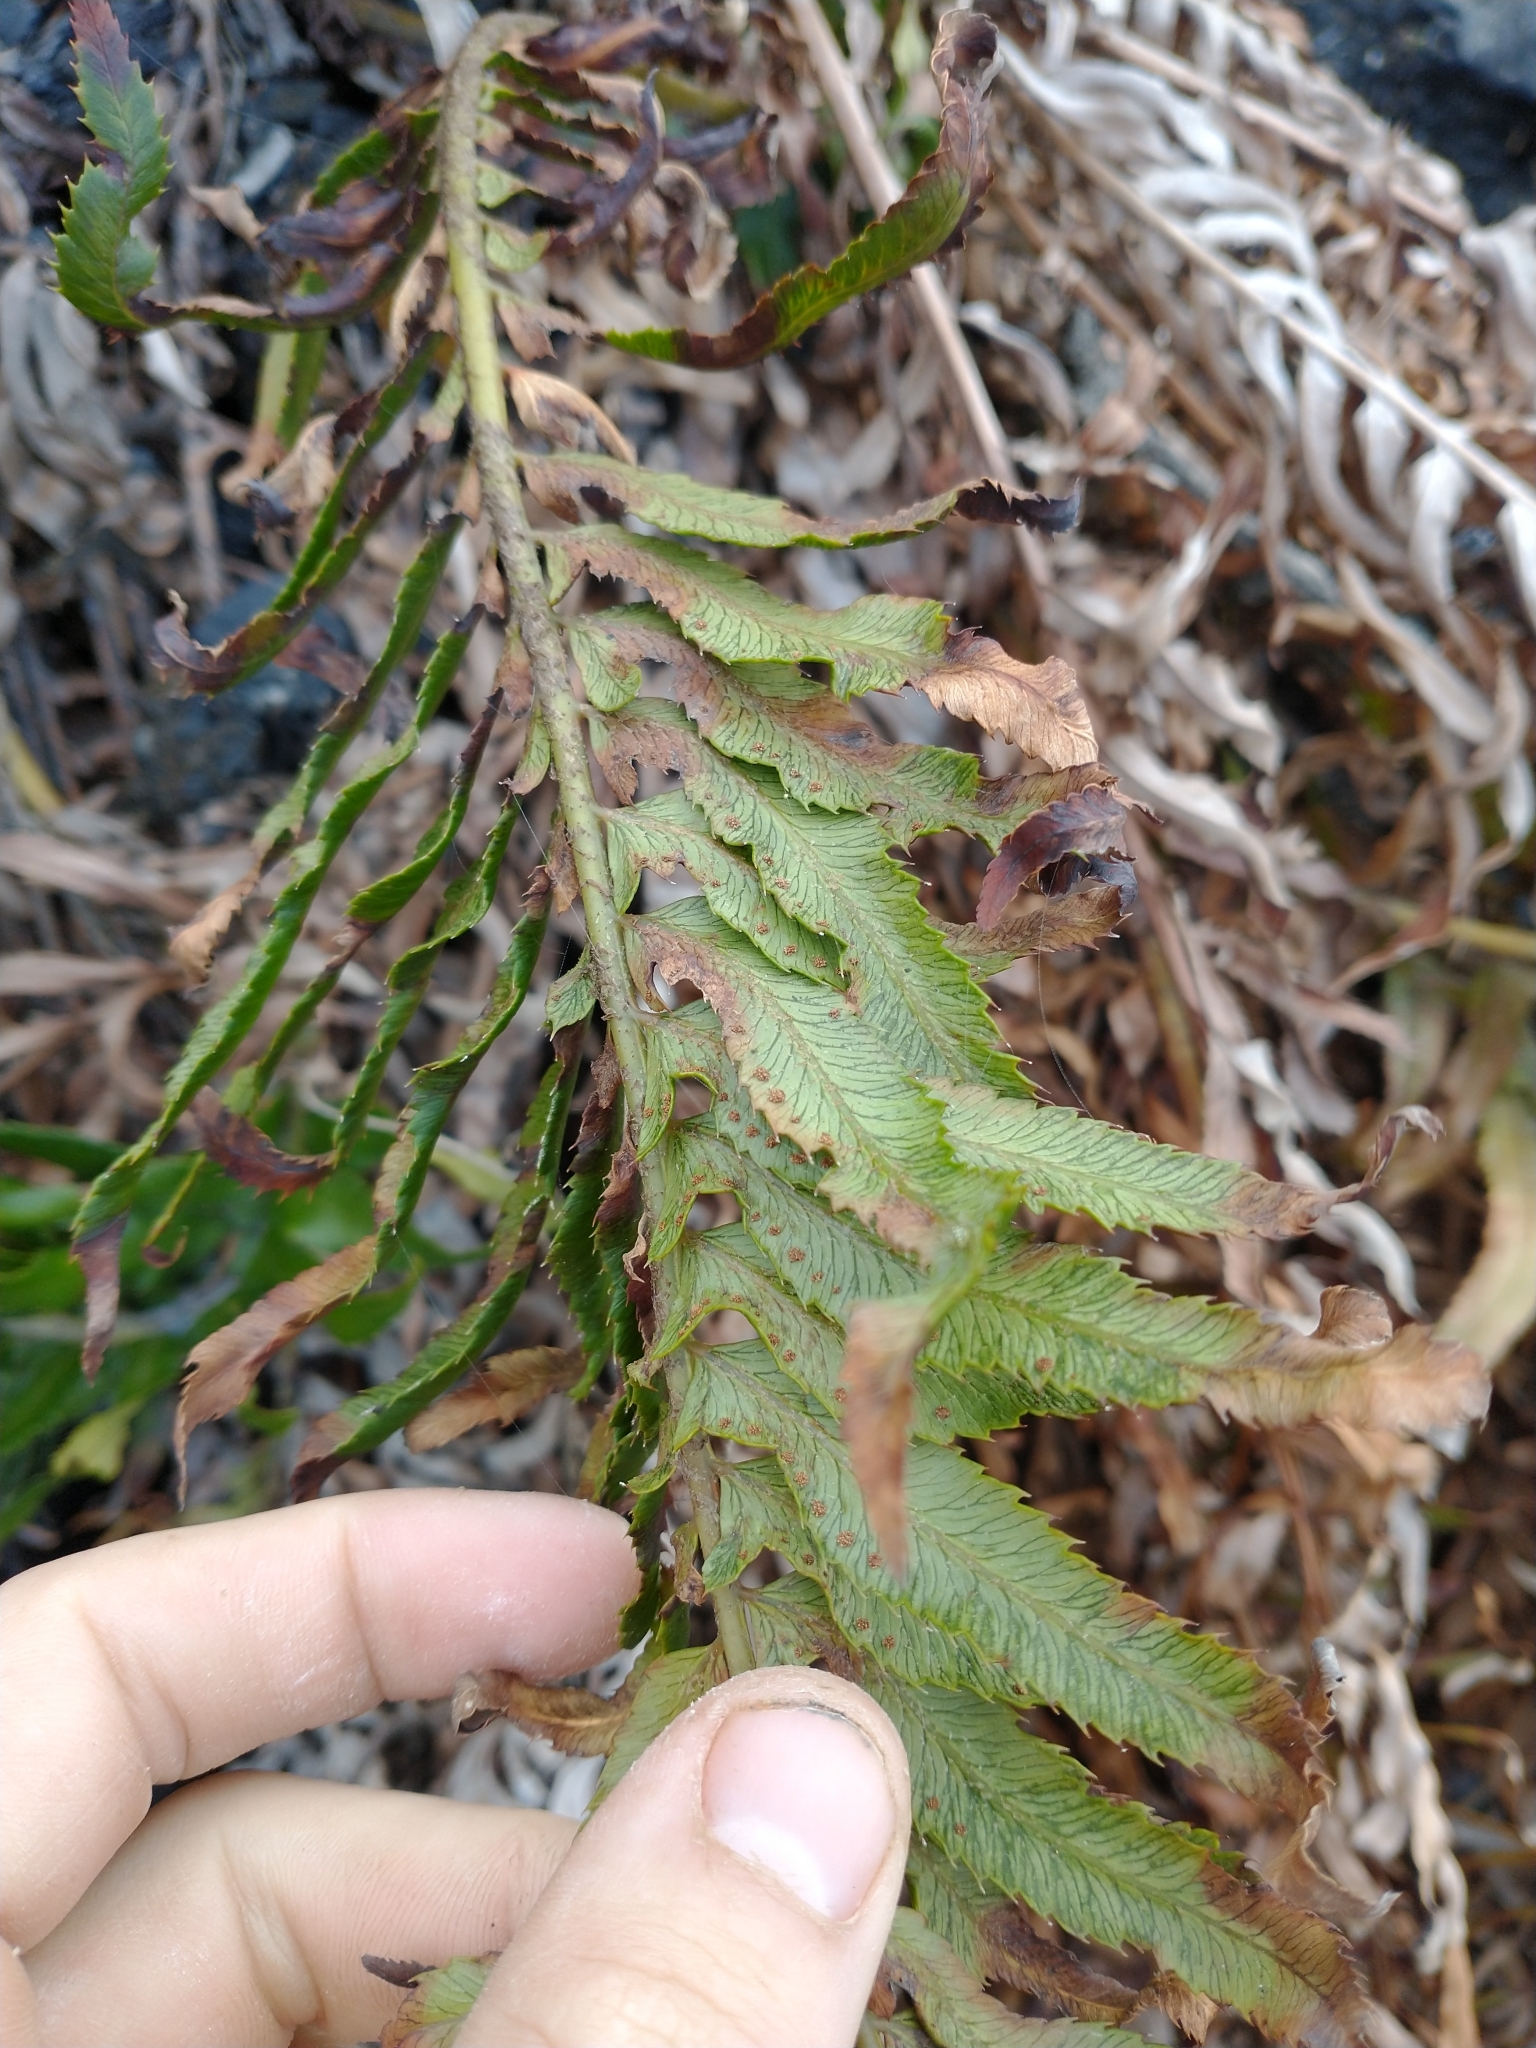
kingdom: Plantae
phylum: Tracheophyta
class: Polypodiopsida
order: Polypodiales
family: Dryopteridaceae
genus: Polystichum
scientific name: Polystichum munitum
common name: Western sword-fern
